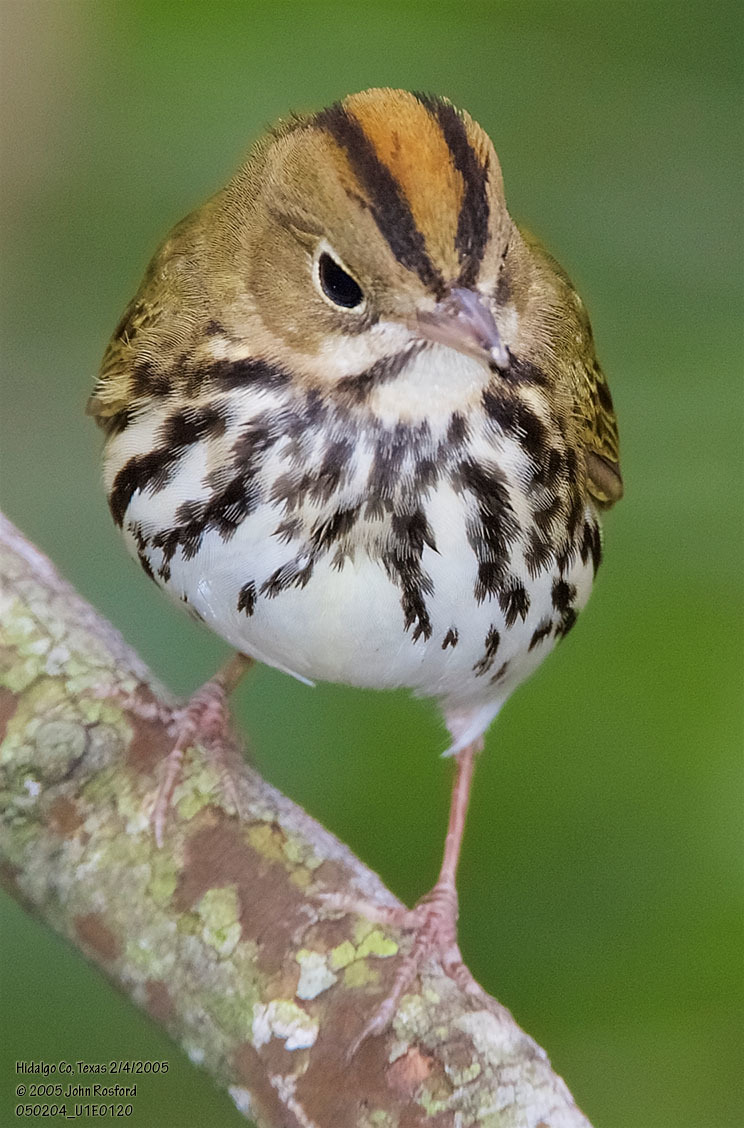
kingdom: Animalia
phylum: Chordata
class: Aves
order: Passeriformes
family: Parulidae
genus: Seiurus
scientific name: Seiurus aurocapilla
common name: Ovenbird
